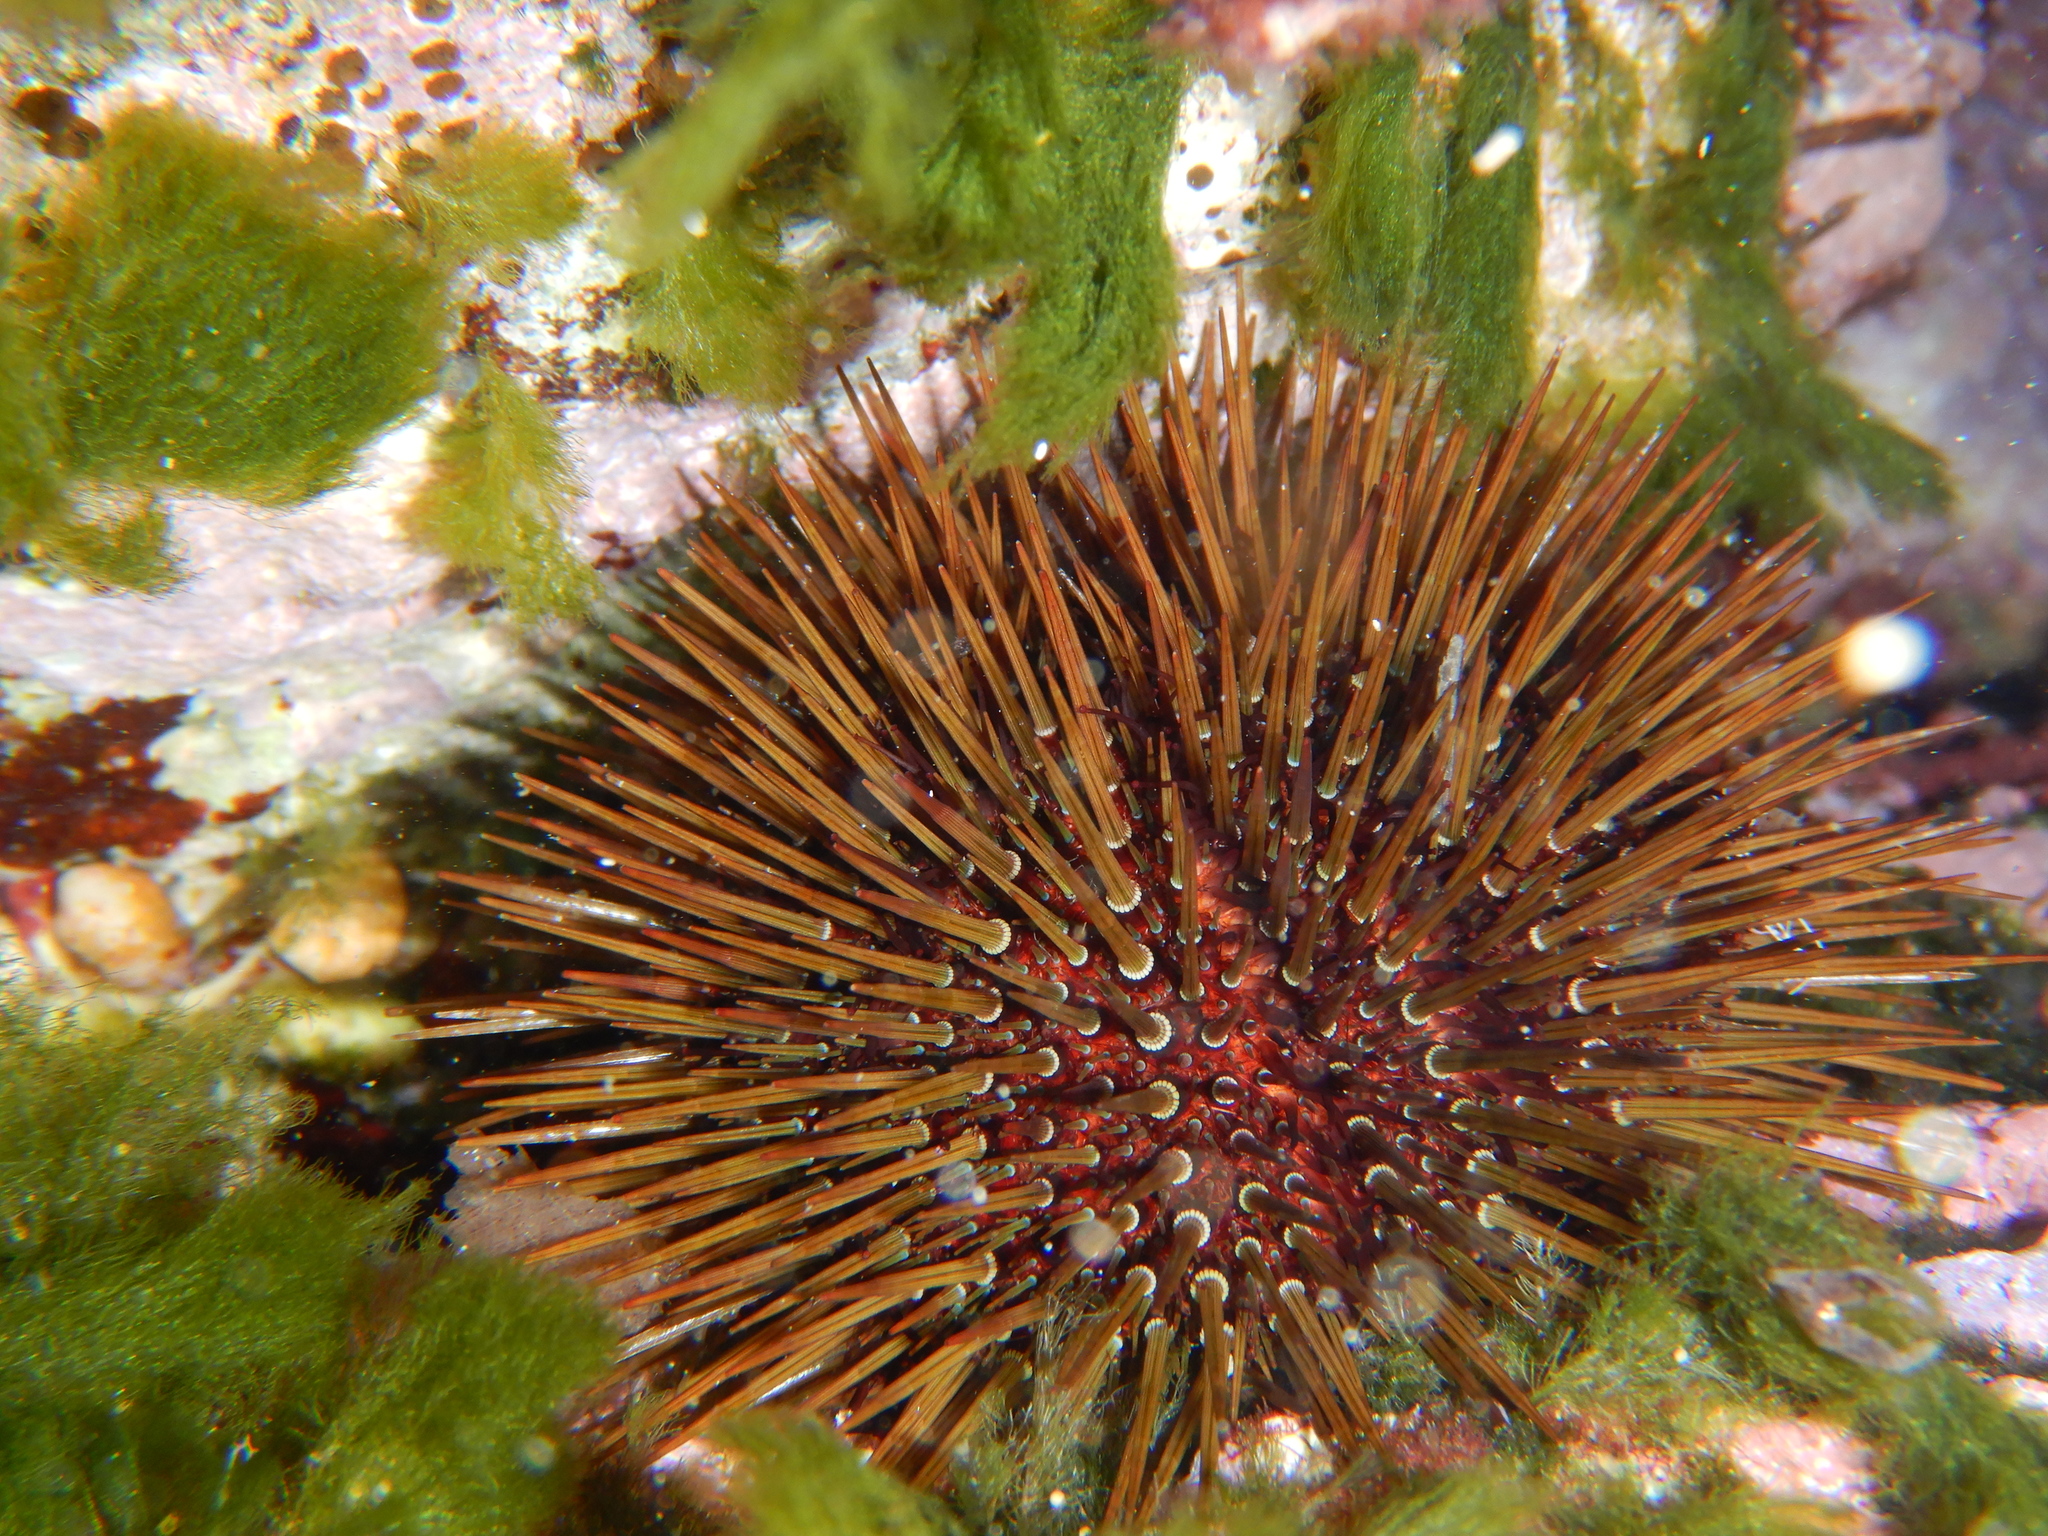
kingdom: Animalia
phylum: Echinodermata
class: Echinoidea
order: Camarodonta
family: Parechinidae
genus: Paracentrotus
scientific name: Paracentrotus lividus
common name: Purple sea urchin
